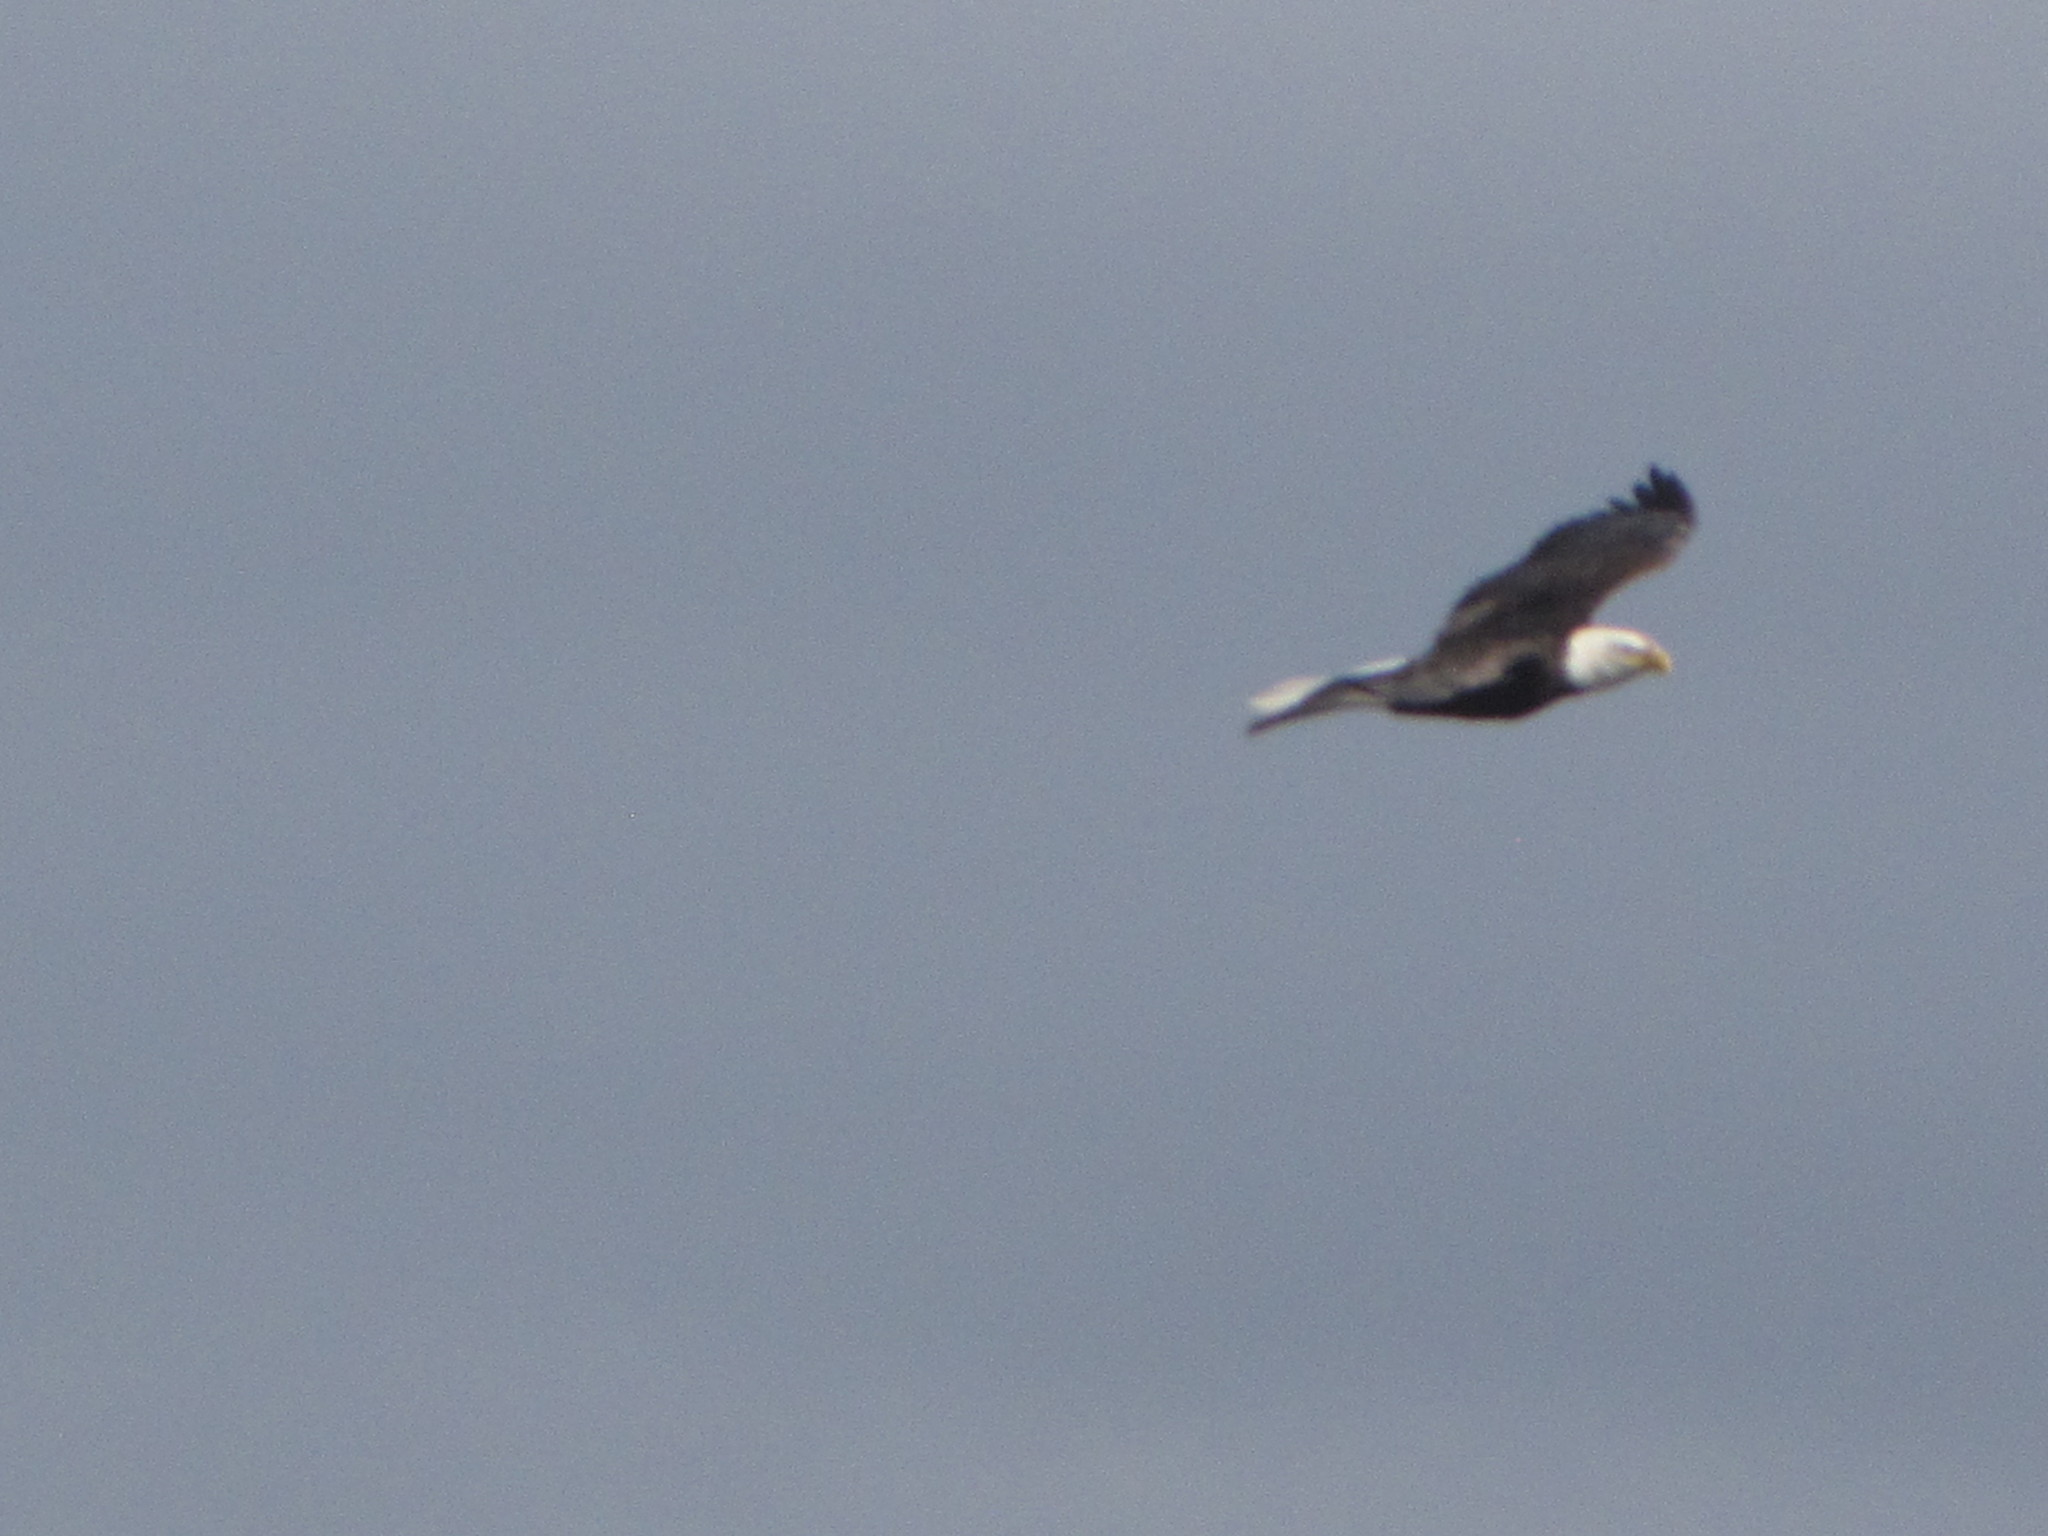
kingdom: Animalia
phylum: Chordata
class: Aves
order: Accipitriformes
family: Accipitridae
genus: Haliaeetus
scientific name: Haliaeetus leucocephalus
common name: Bald eagle
